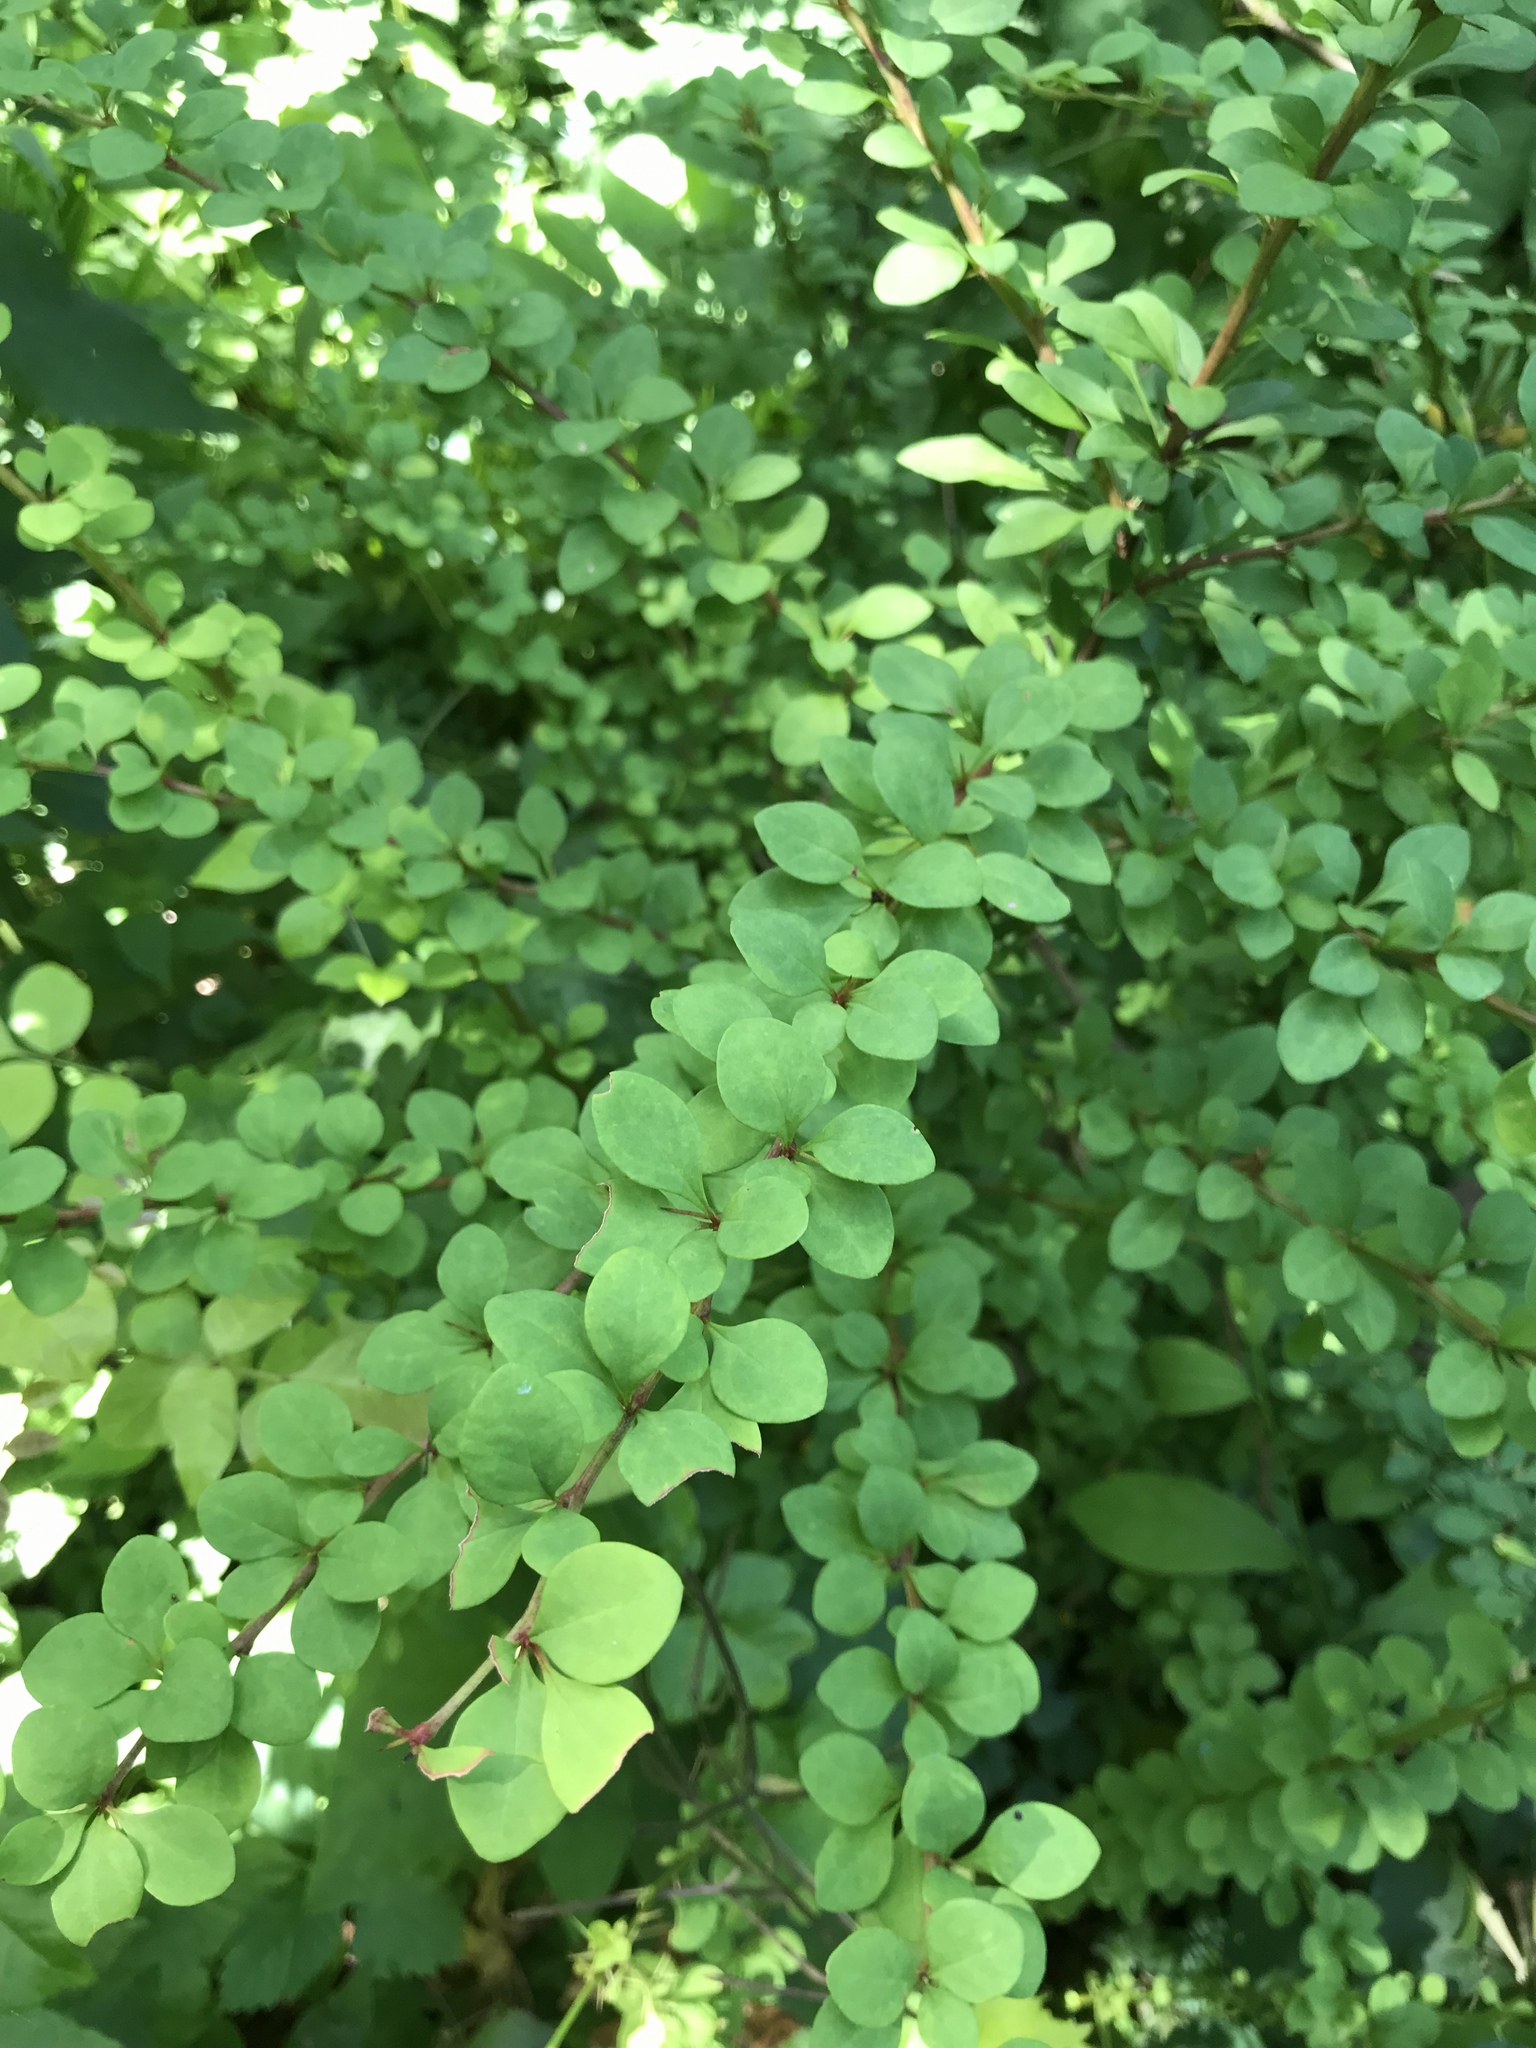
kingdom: Plantae
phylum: Tracheophyta
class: Magnoliopsida
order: Ranunculales
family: Berberidaceae
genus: Berberis
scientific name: Berberis thunbergii
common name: Japanese barberry
